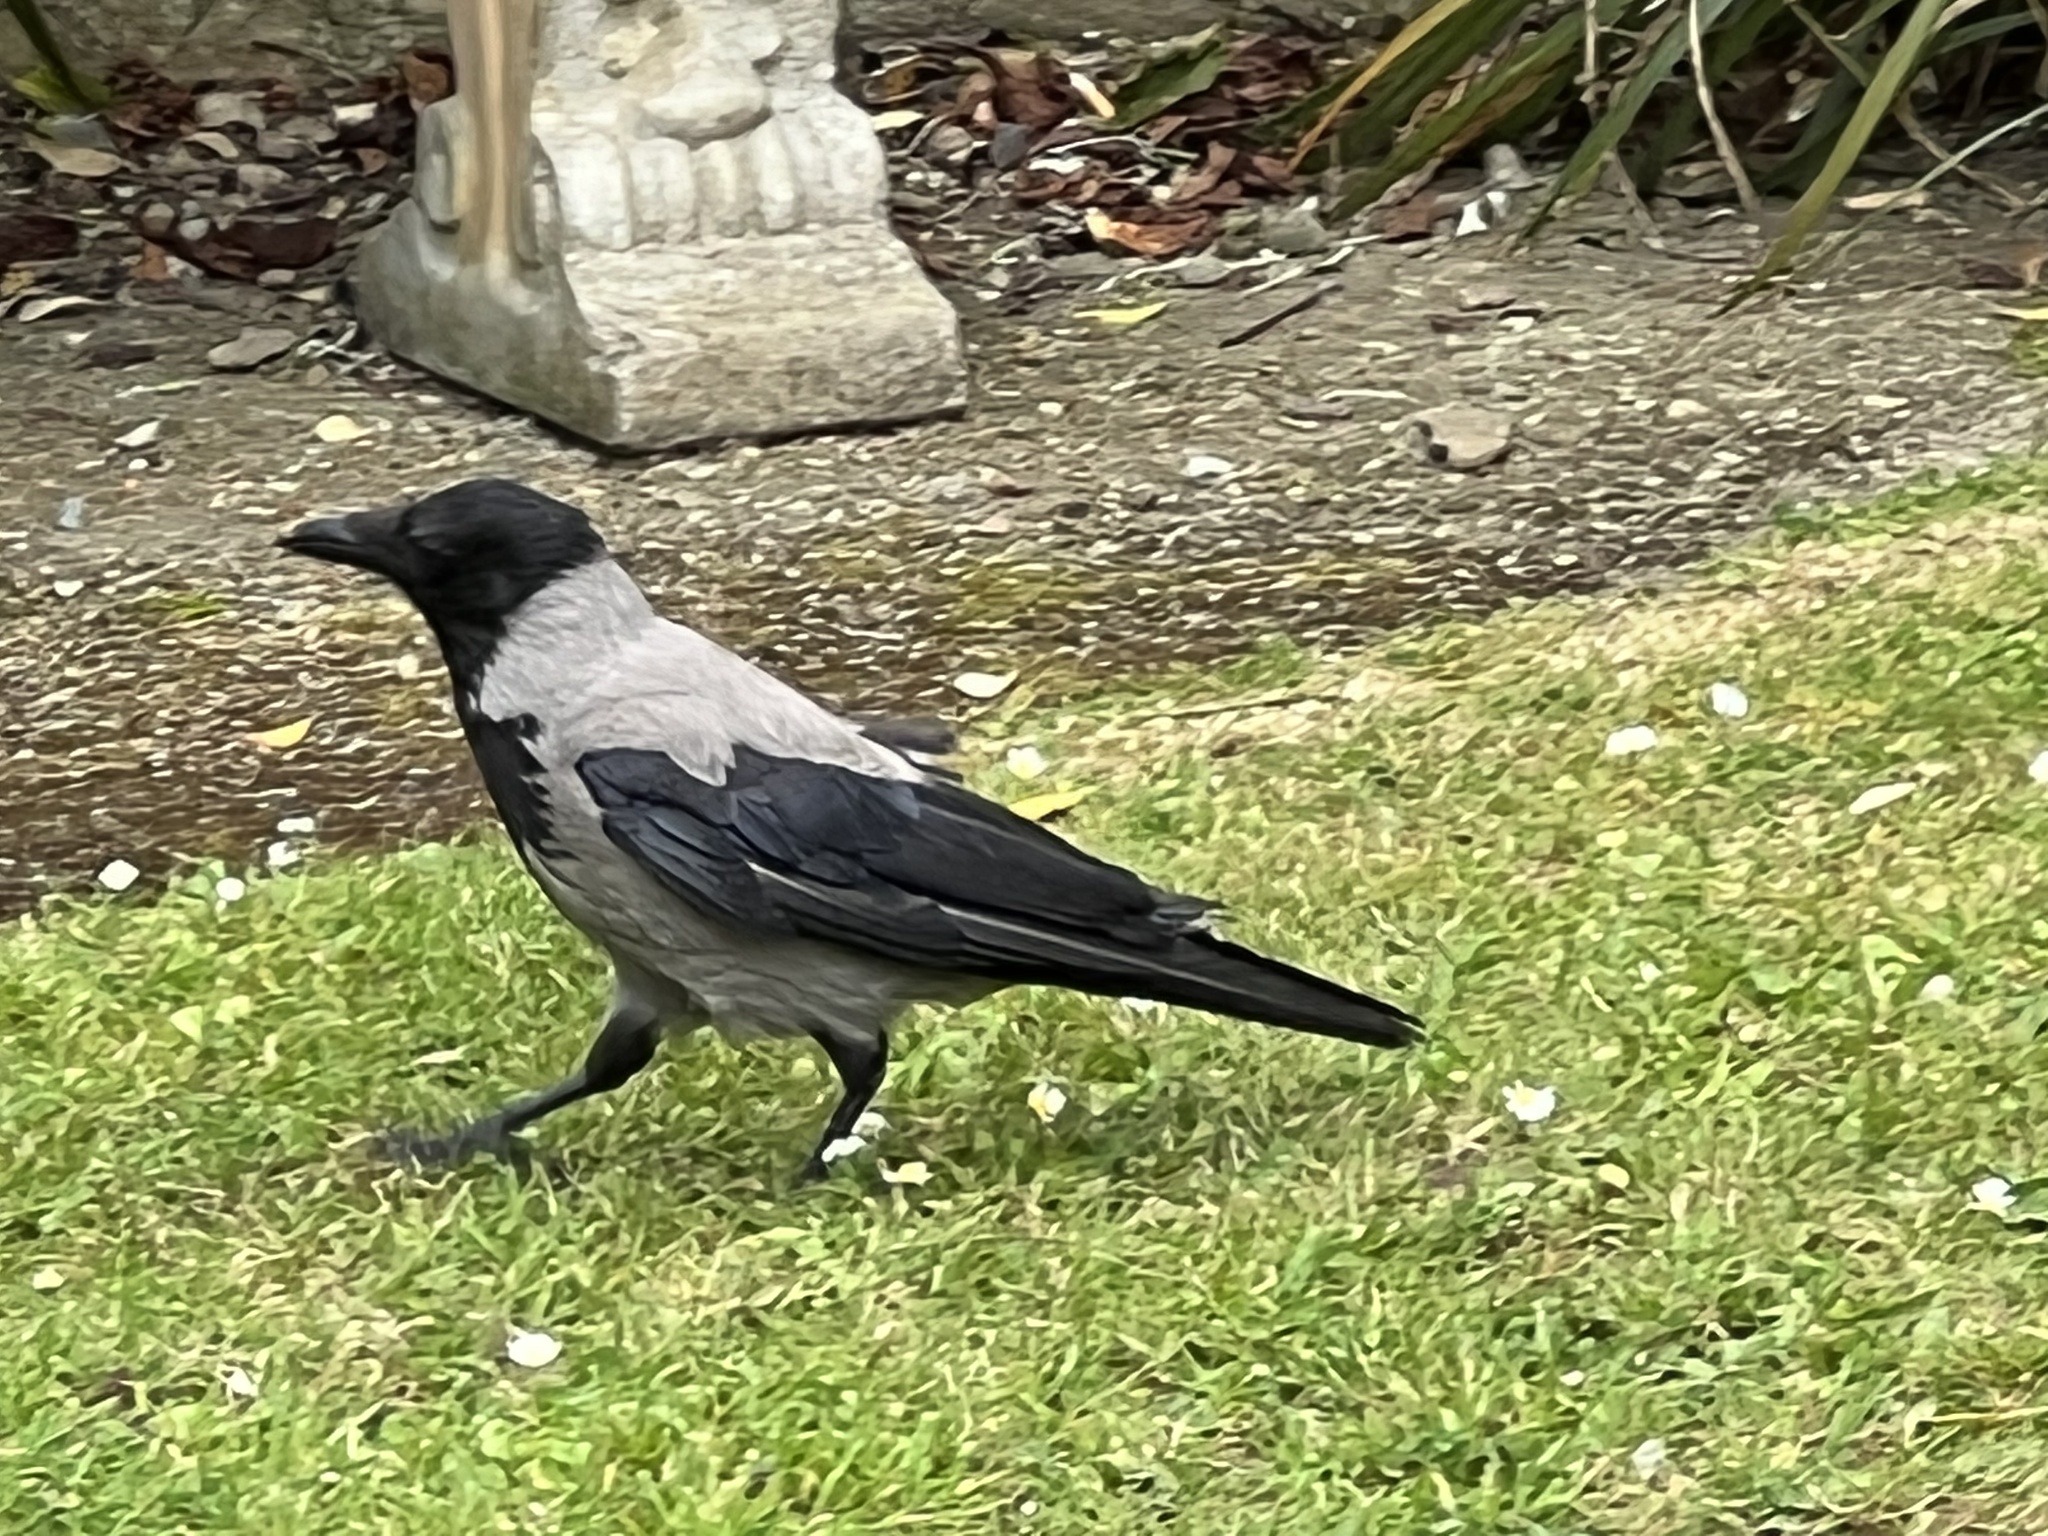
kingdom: Animalia
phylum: Chordata
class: Aves
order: Passeriformes
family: Corvidae
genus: Corvus
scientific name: Corvus cornix
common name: Hooded crow
